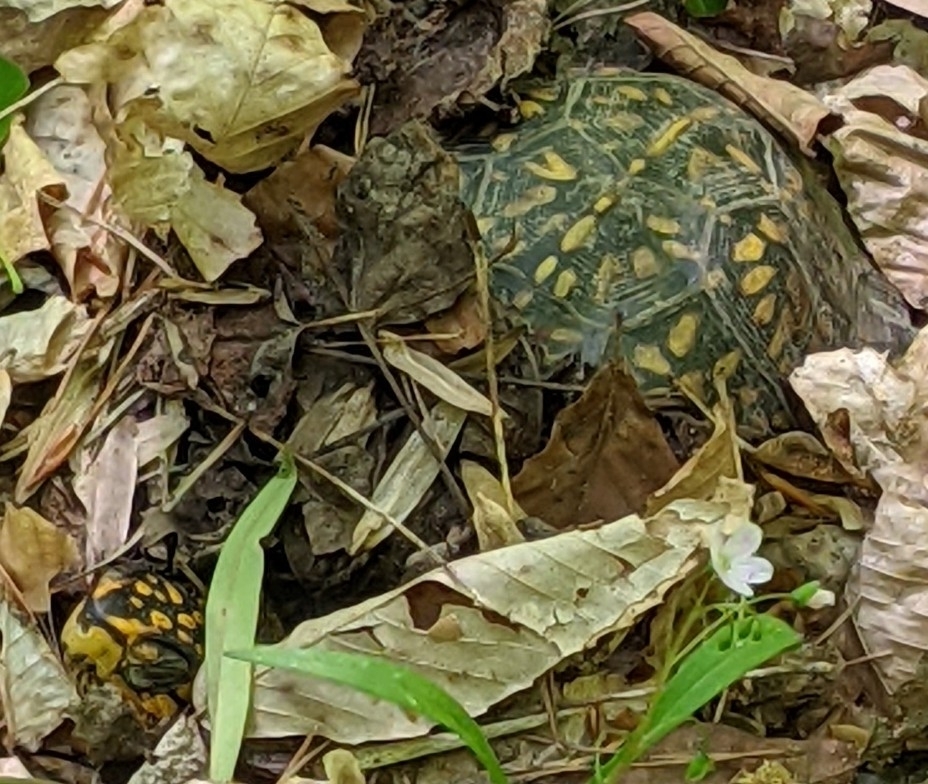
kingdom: Animalia
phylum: Chordata
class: Testudines
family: Emydidae
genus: Terrapene
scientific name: Terrapene carolina
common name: Common box turtle
